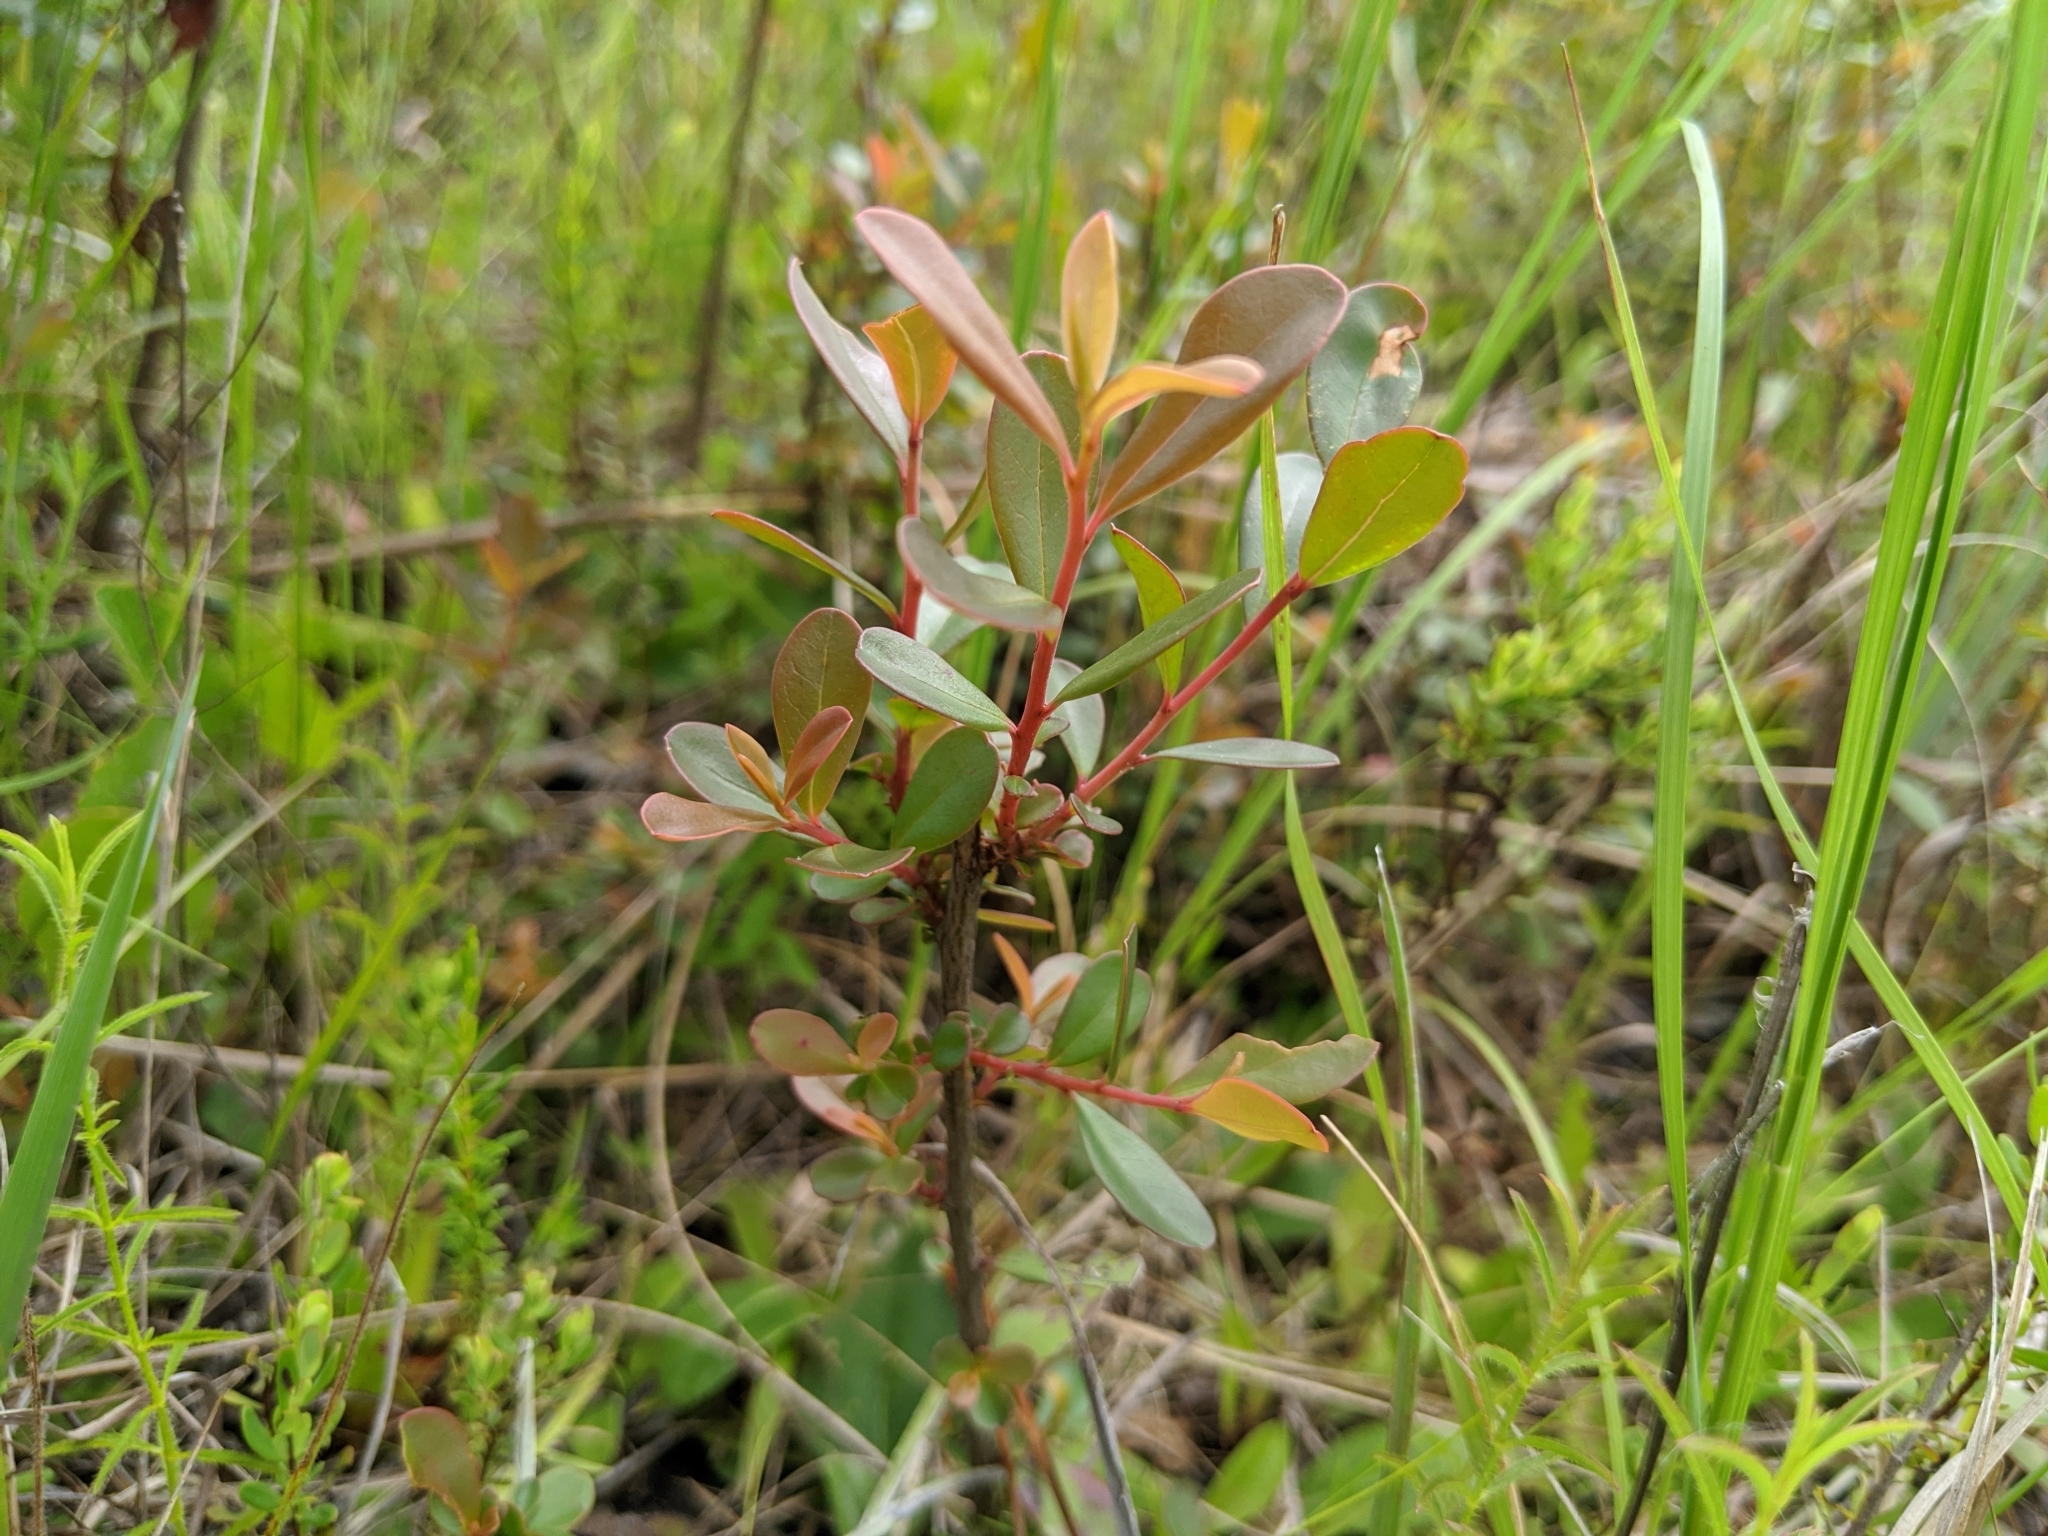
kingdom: Plantae
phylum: Tracheophyta
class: Magnoliopsida
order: Ericales
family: Cyrillaceae
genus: Cliftonia
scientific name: Cliftonia monophylla
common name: Titi
